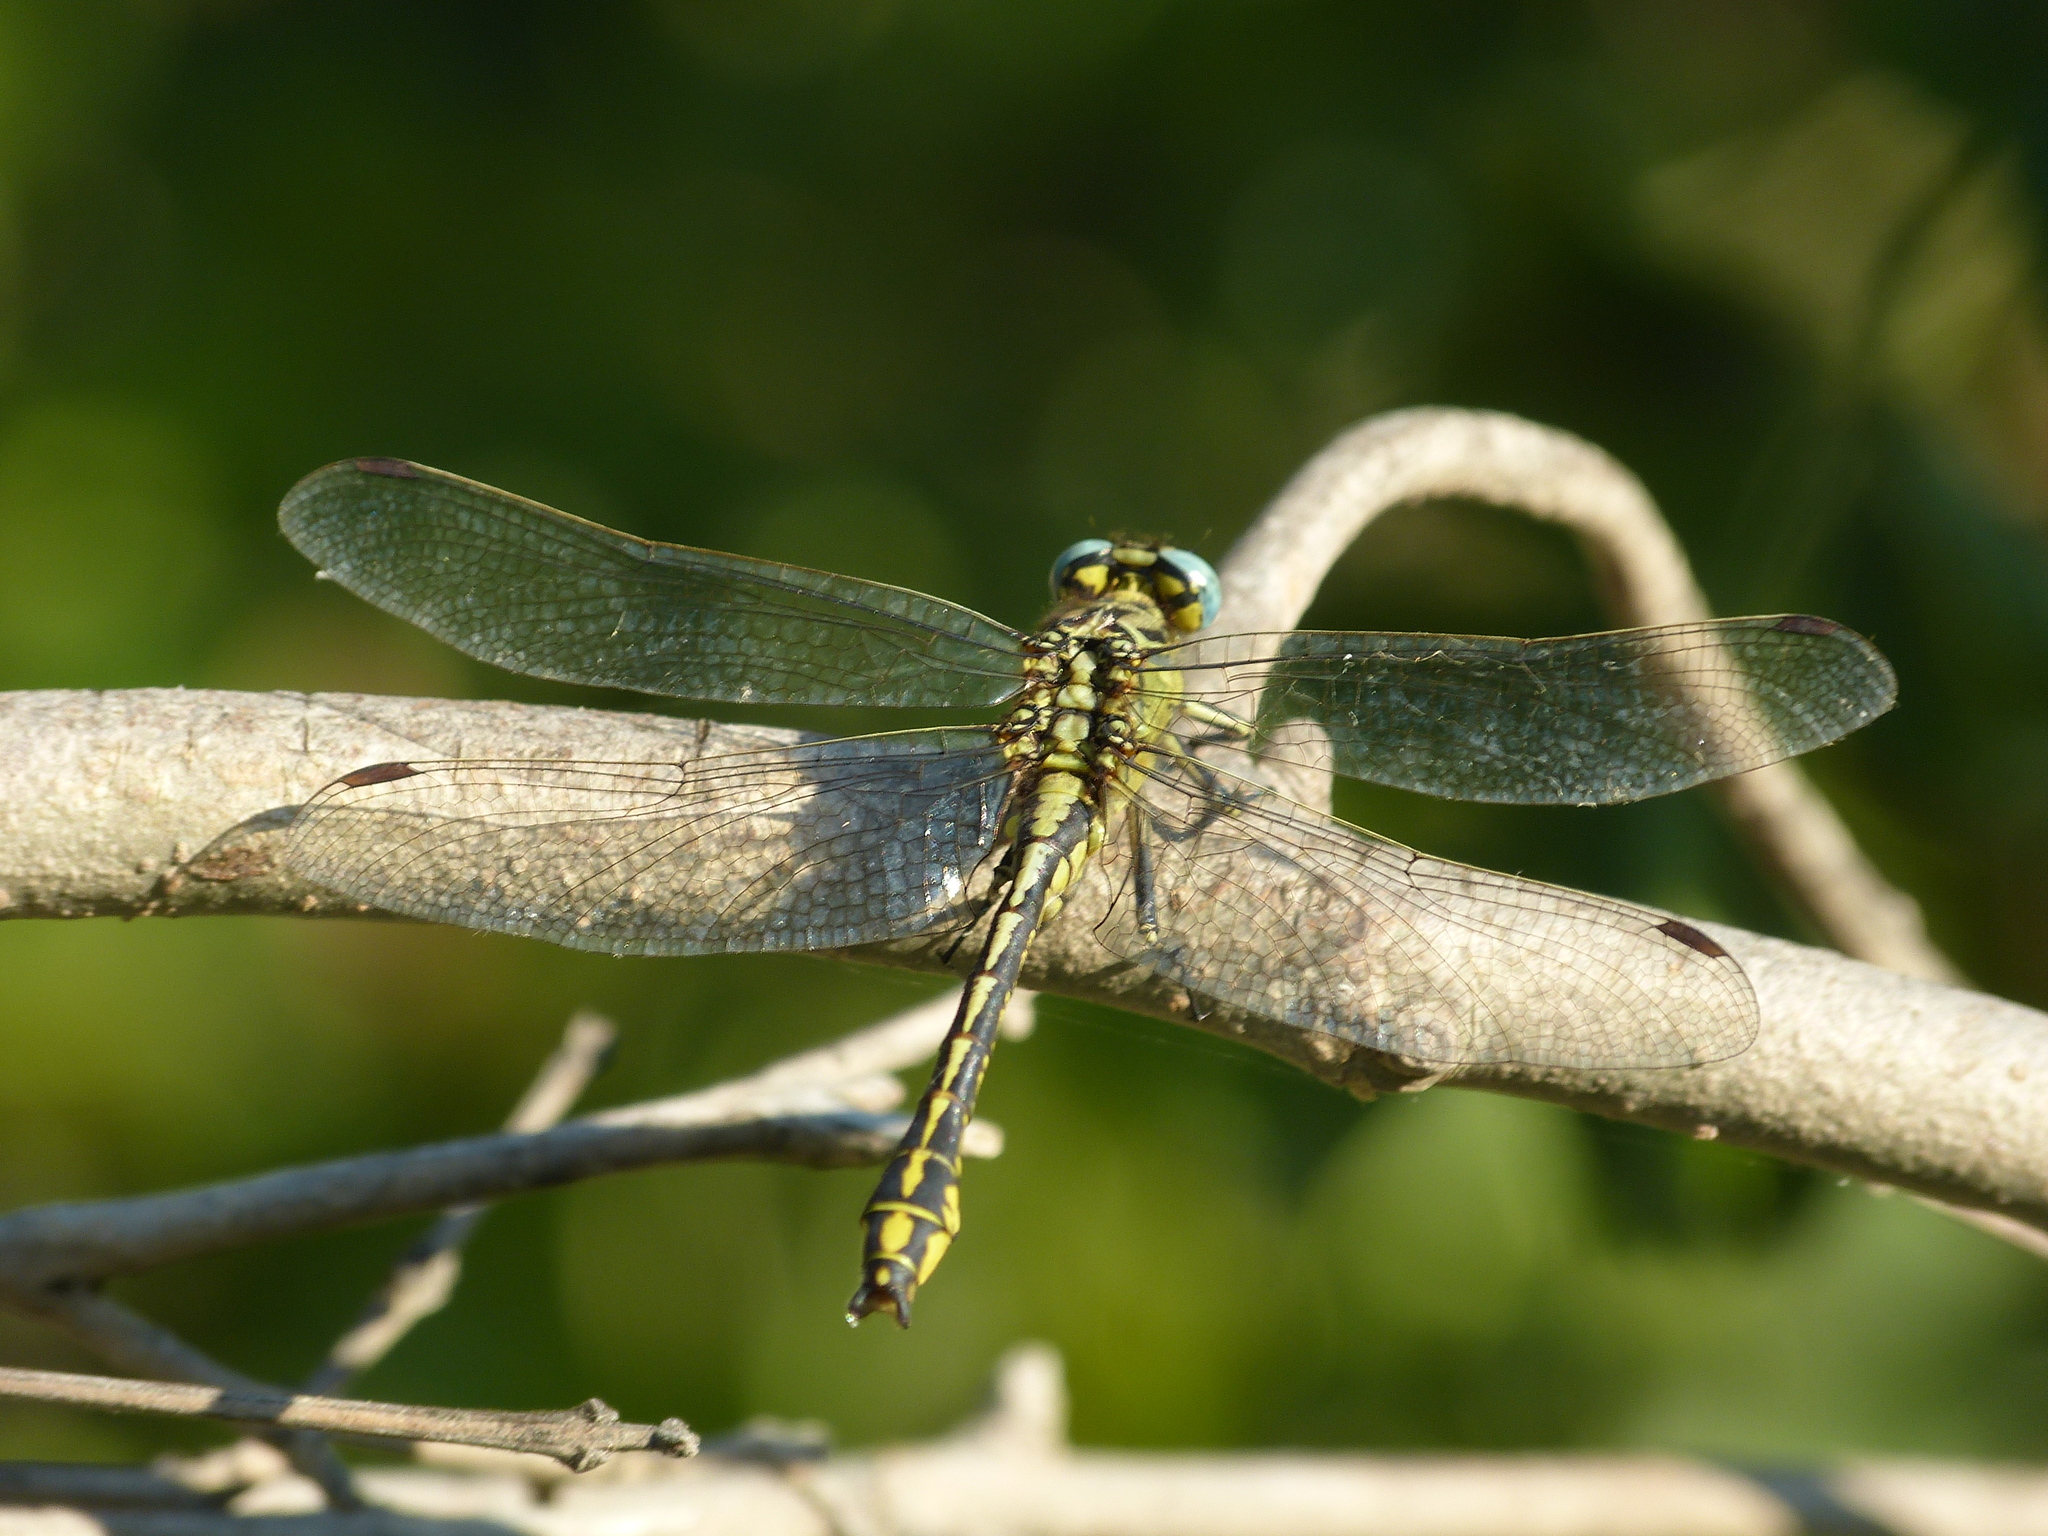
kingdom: Animalia
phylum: Arthropoda
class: Insecta
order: Odonata
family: Gomphidae
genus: Gomphus
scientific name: Gomphus simillimus
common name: Yellow clubtail
